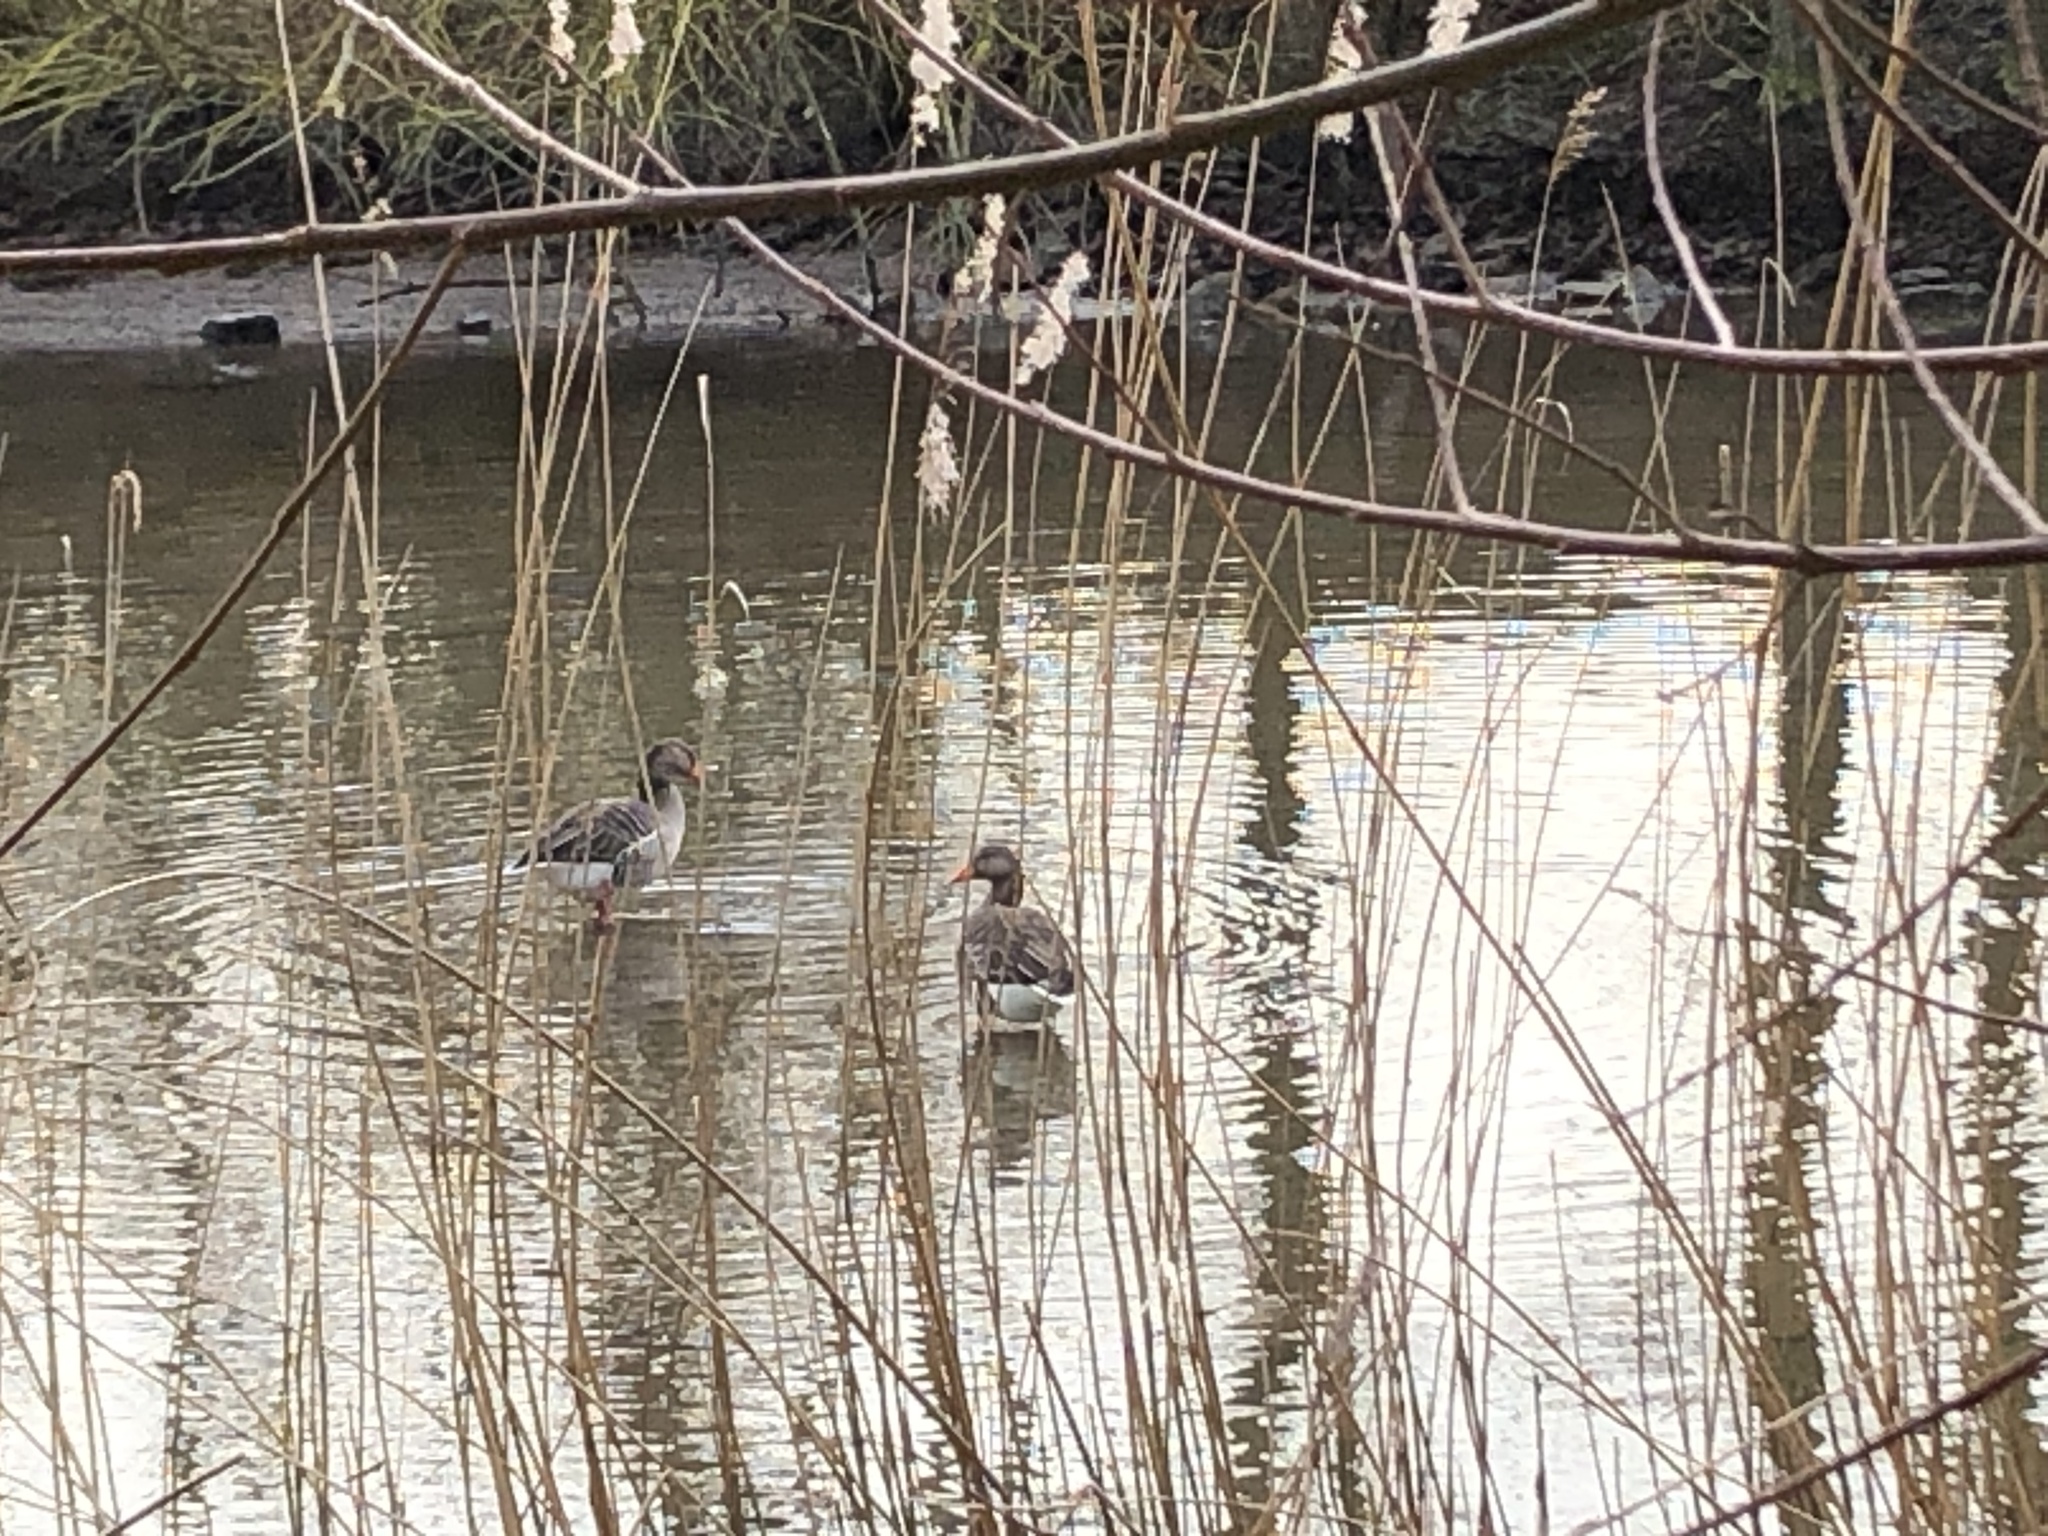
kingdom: Animalia
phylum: Chordata
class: Aves
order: Anseriformes
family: Anatidae
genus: Anser
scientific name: Anser anser
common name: Greylag goose
